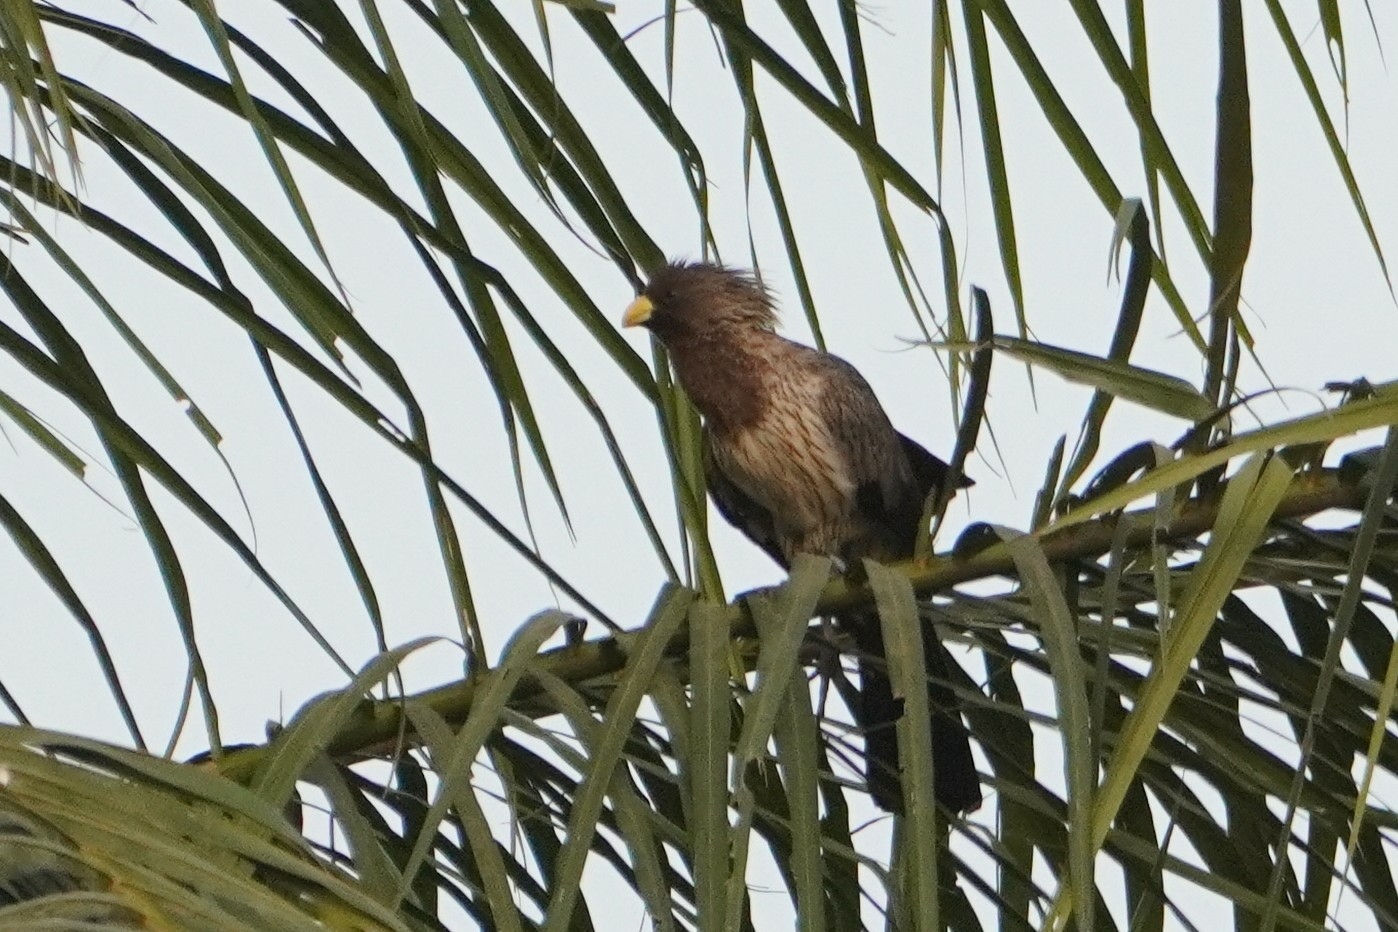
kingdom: Animalia
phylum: Chordata
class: Aves
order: Musophagiformes
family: Musophagidae
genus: Crinifer
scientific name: Crinifer piscator
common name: Western plantain-eater
